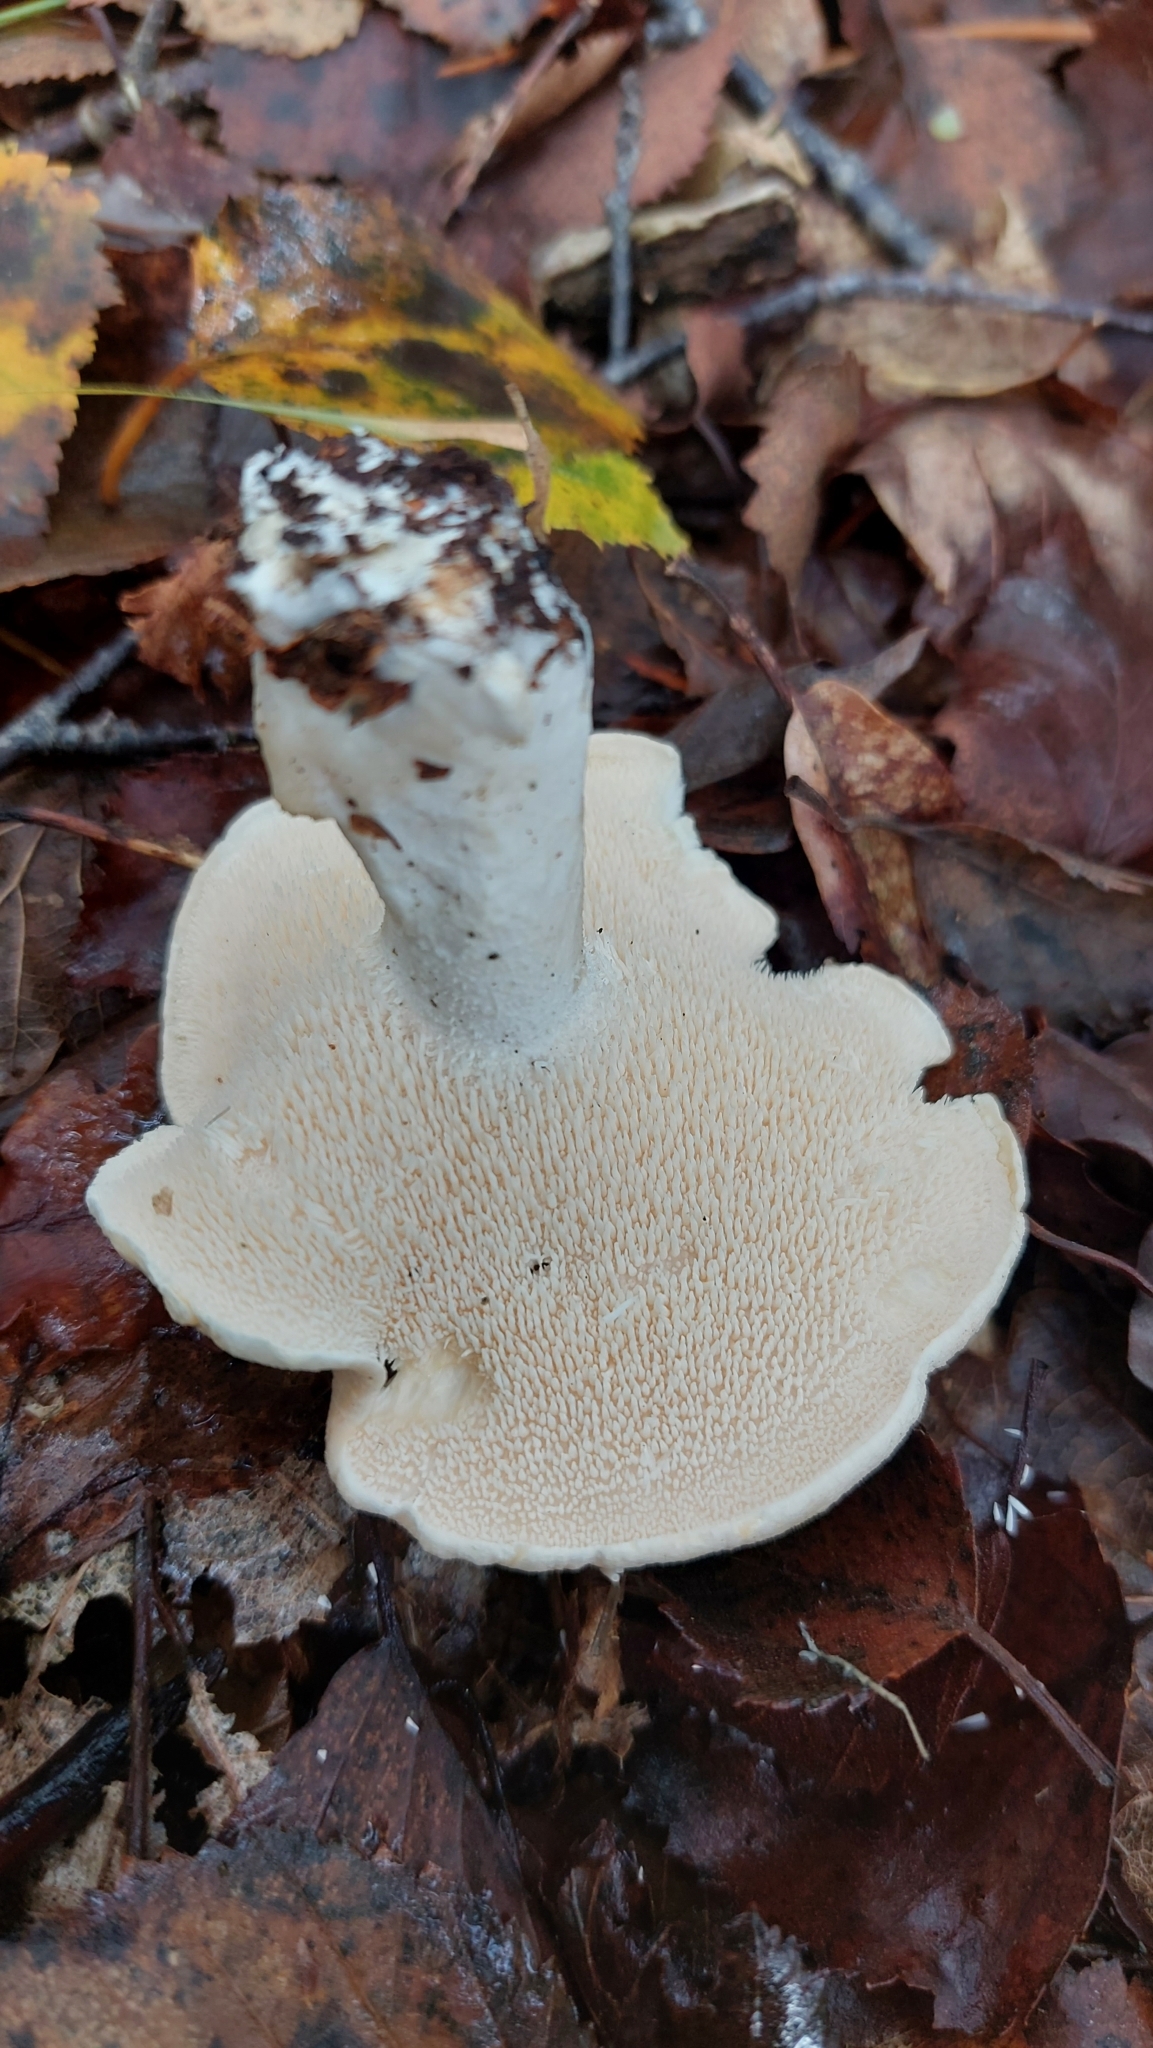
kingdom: Fungi
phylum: Basidiomycota
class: Agaricomycetes
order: Cantharellales
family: Hydnaceae
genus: Hydnum
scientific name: Hydnum repandum
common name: Wood hedgehog
